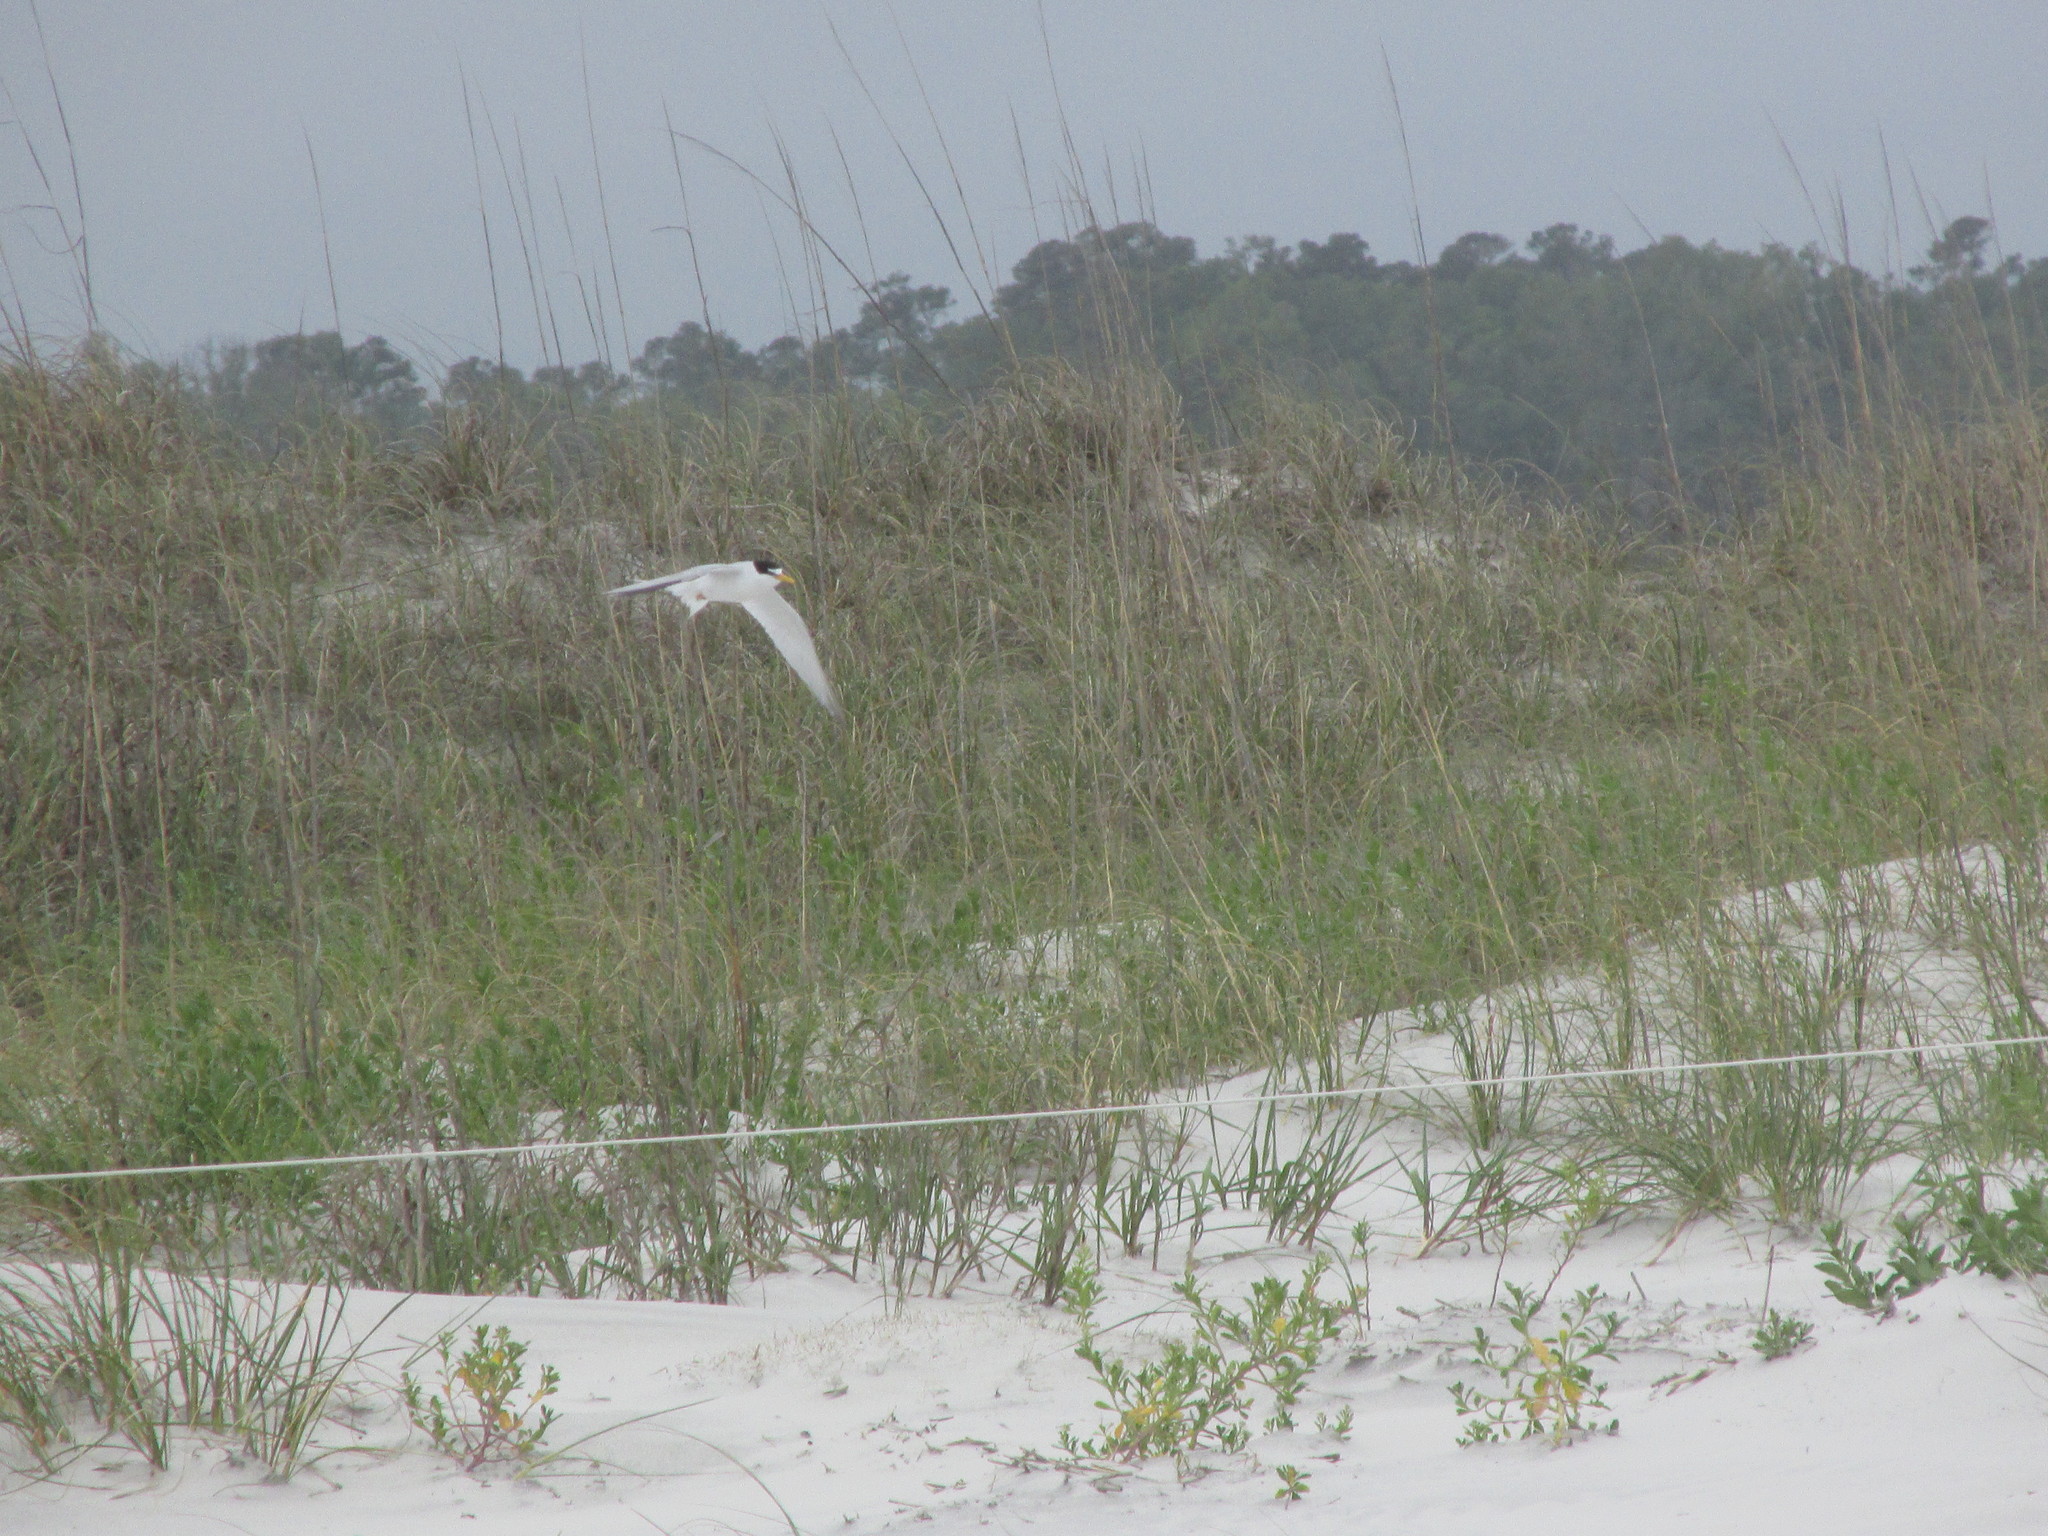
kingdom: Animalia
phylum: Chordata
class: Aves
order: Charadriiformes
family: Laridae
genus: Sternula
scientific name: Sternula antillarum
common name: Least tern
